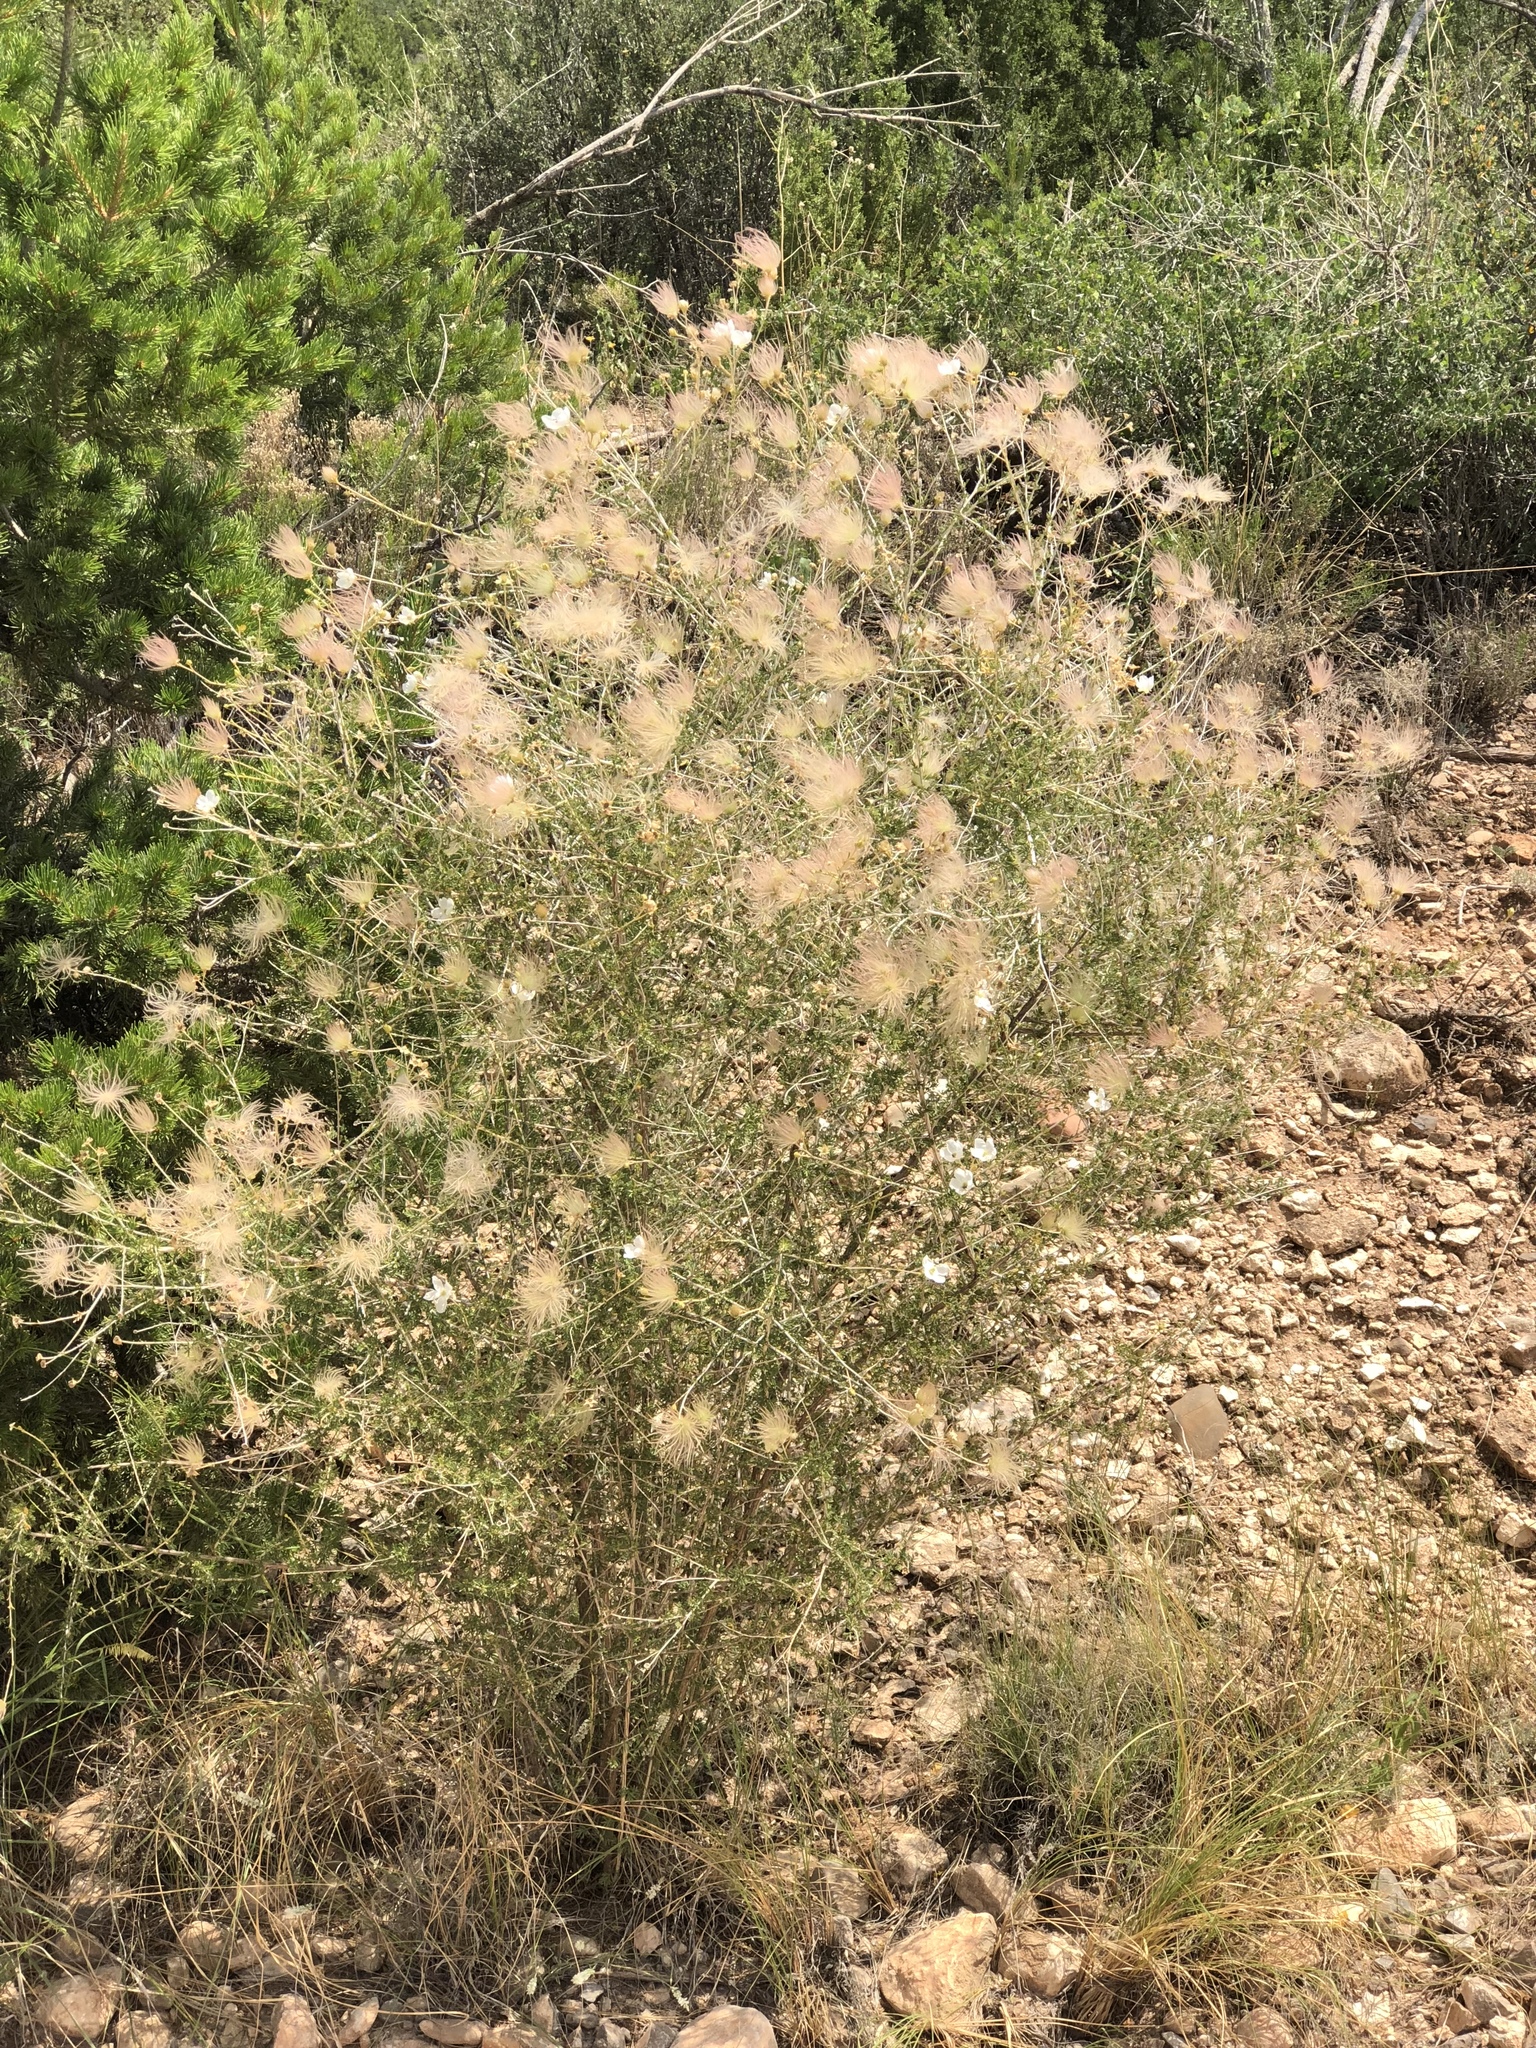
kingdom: Plantae
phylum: Tracheophyta
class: Magnoliopsida
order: Rosales
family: Rosaceae
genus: Fallugia
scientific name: Fallugia paradoxa
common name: Apache-plume
